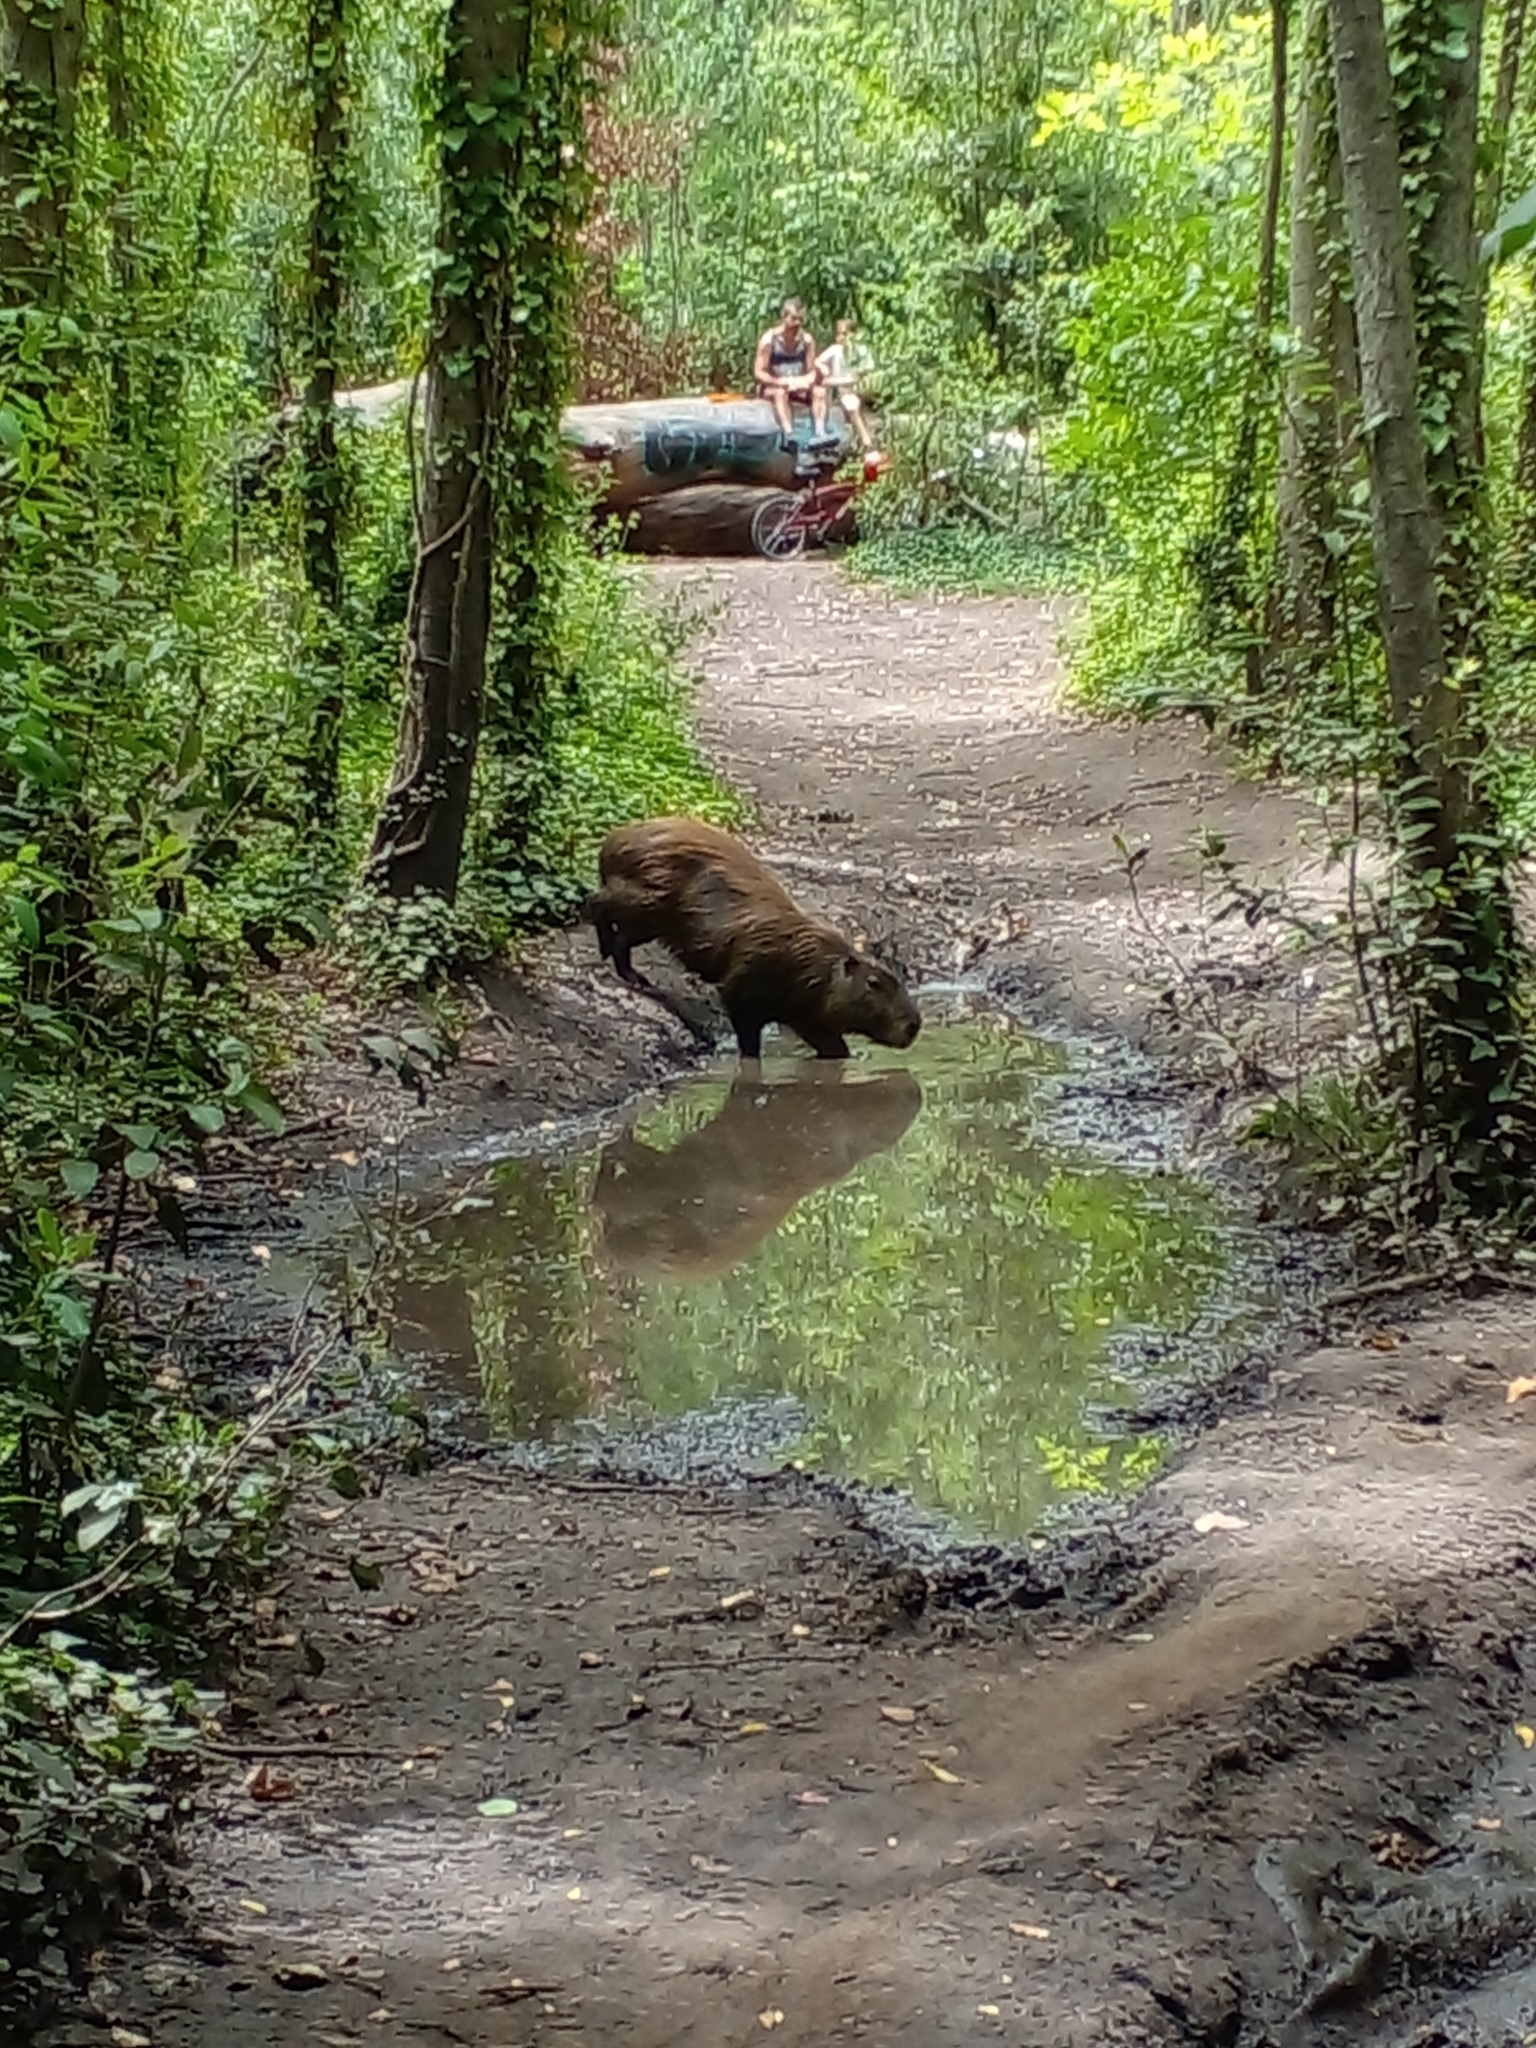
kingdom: Animalia
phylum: Chordata
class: Mammalia
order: Rodentia
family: Caviidae
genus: Hydrochoerus
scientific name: Hydrochoerus hydrochaeris
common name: Capybara
